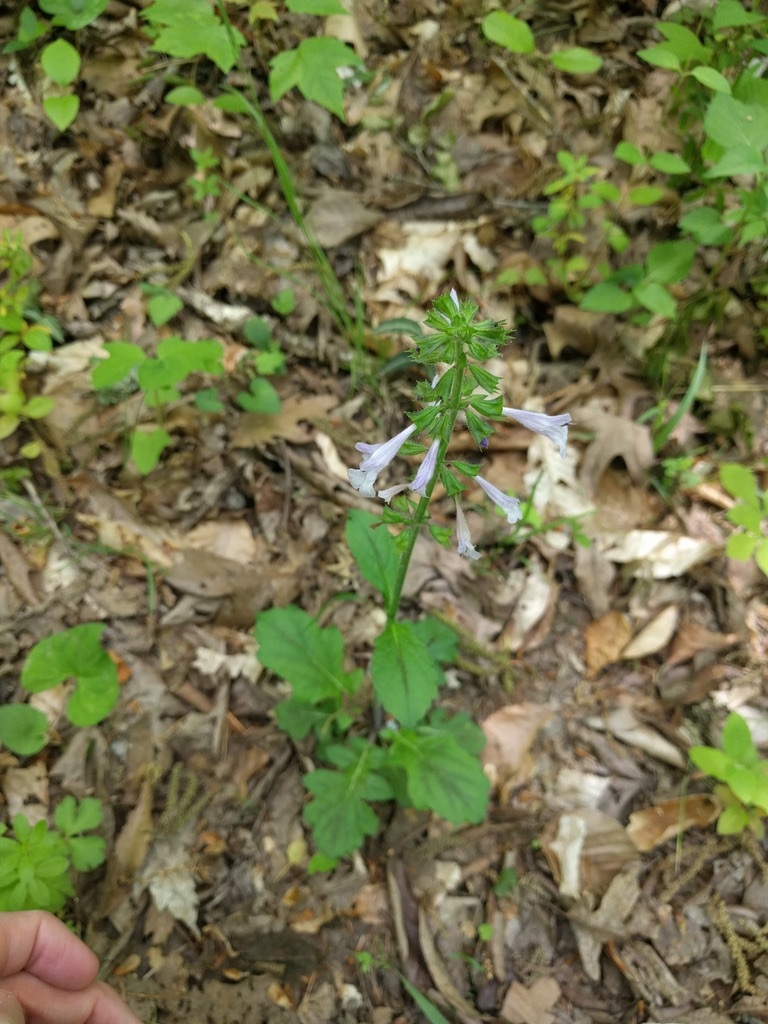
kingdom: Plantae
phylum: Tracheophyta
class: Magnoliopsida
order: Lamiales
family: Lamiaceae
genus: Salvia
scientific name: Salvia lyrata
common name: Cancerweed
